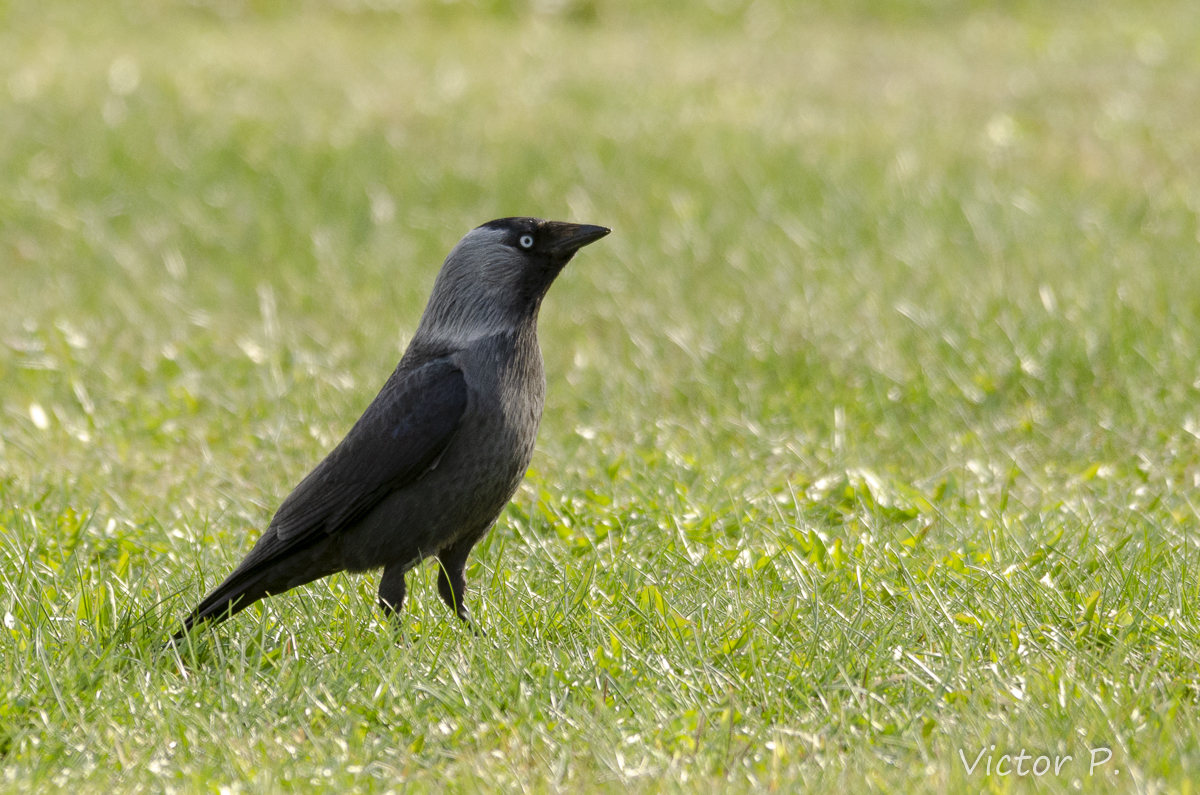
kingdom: Animalia
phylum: Chordata
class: Aves
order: Passeriformes
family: Corvidae
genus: Coloeus
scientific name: Coloeus monedula
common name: Western jackdaw
